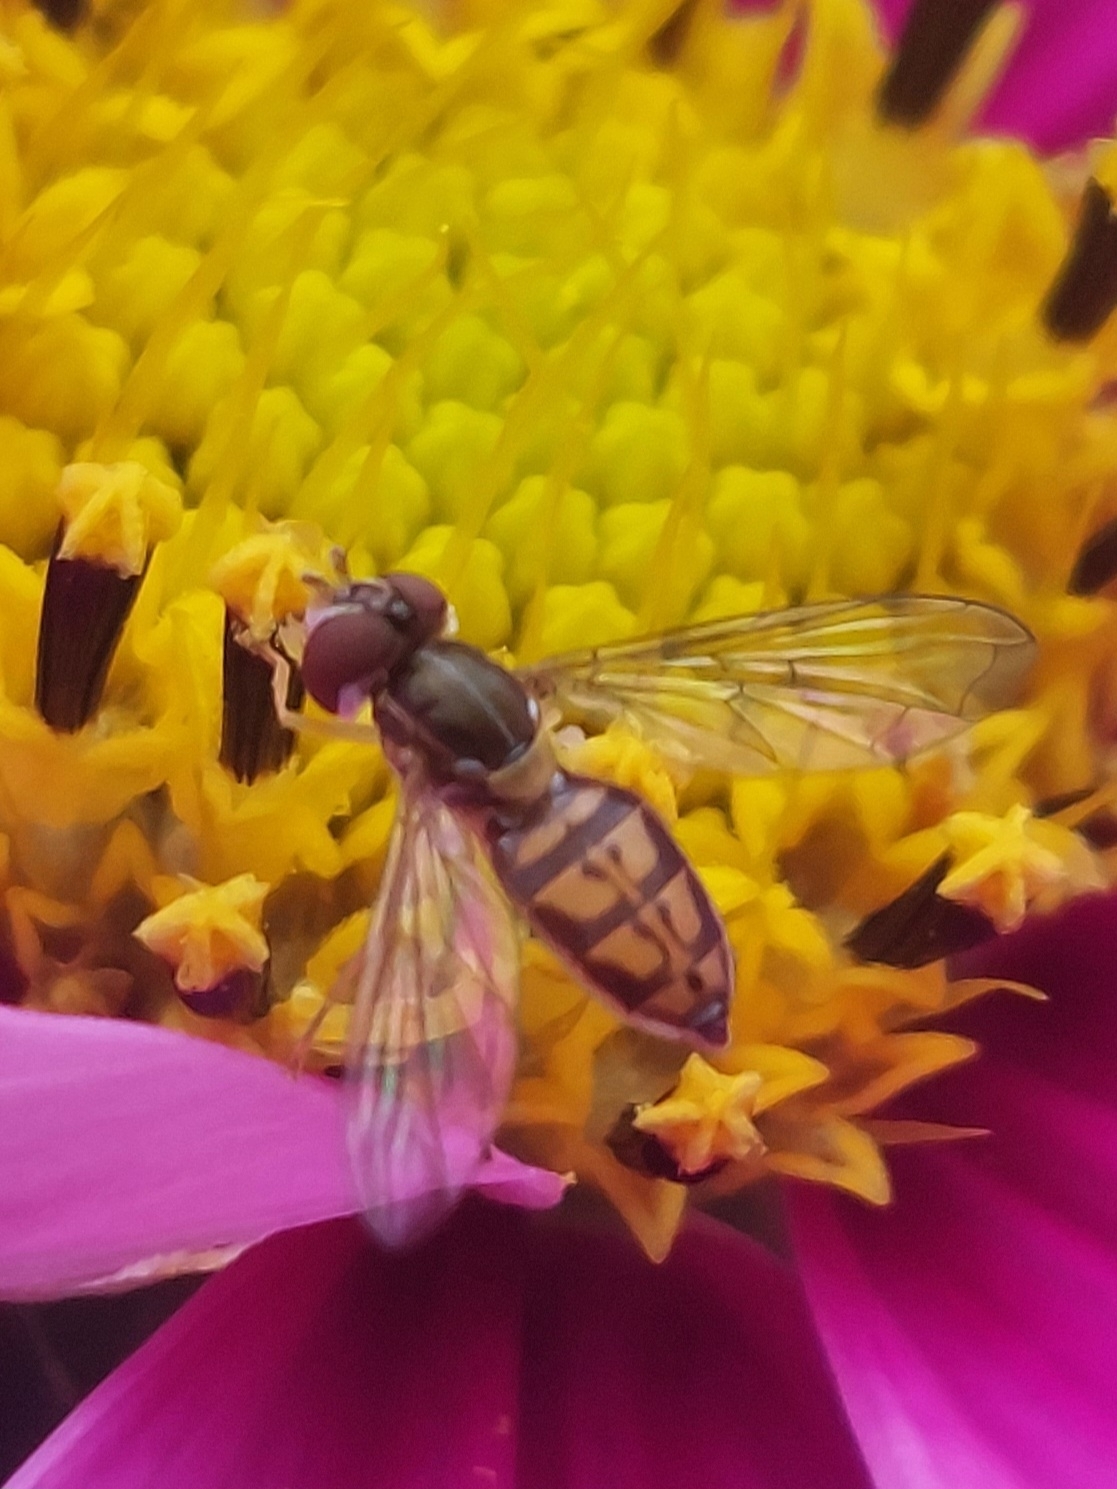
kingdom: Animalia
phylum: Arthropoda
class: Insecta
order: Diptera
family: Syrphidae
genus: Toxomerus
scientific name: Toxomerus marginatus
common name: Syrphid fly
